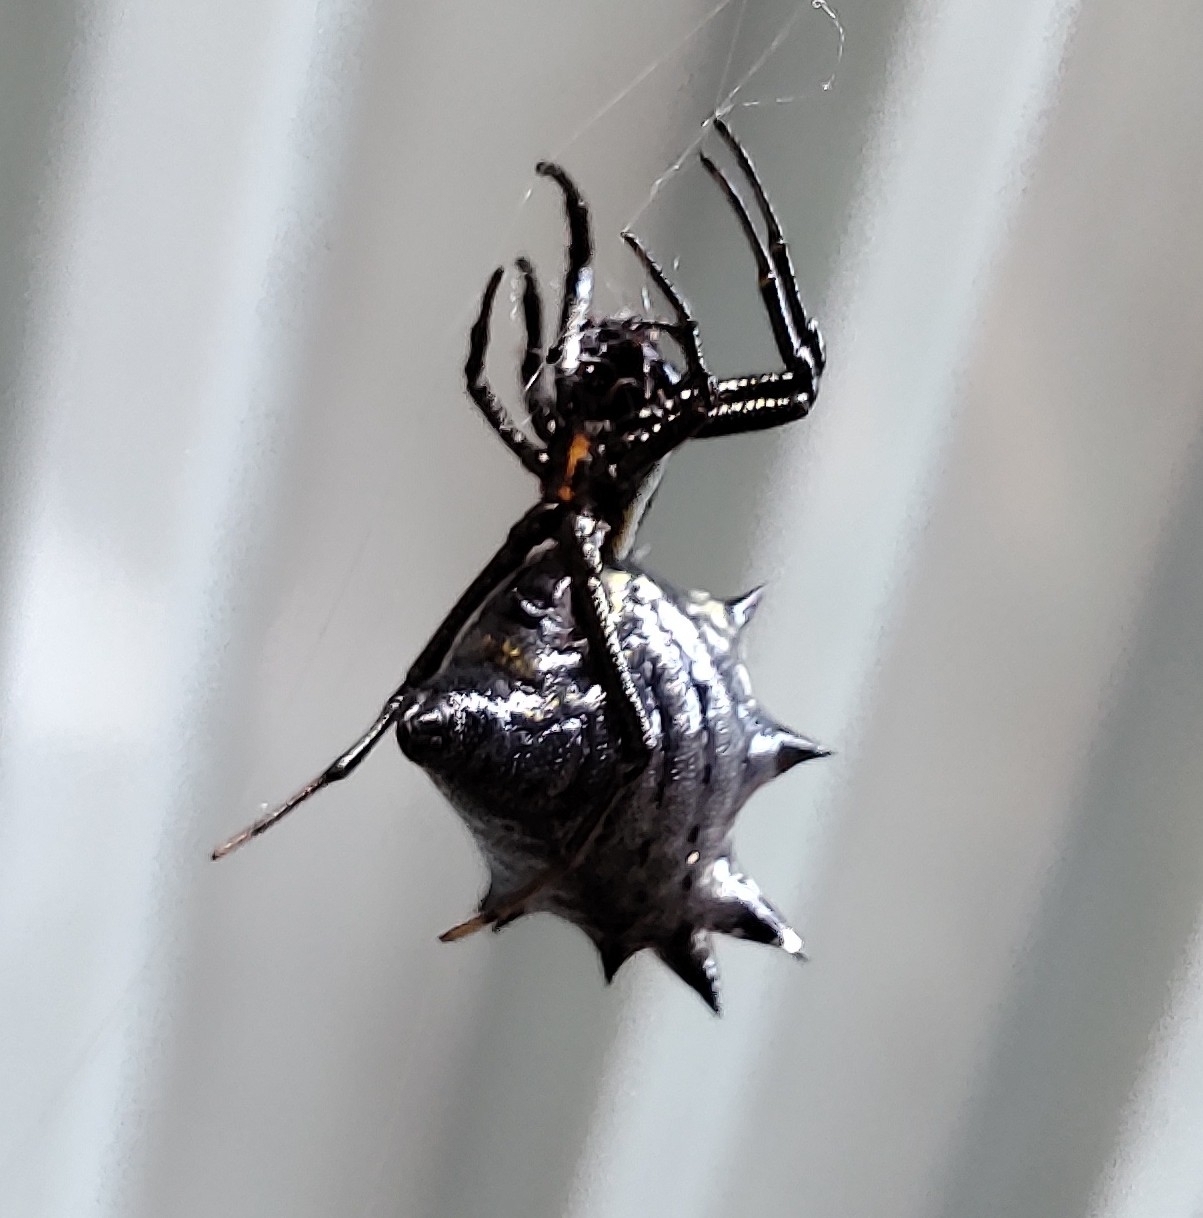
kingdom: Animalia
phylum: Arthropoda
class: Arachnida
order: Araneae
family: Araneidae
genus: Micrathena
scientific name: Micrathena gracilis
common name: Orb weavers
